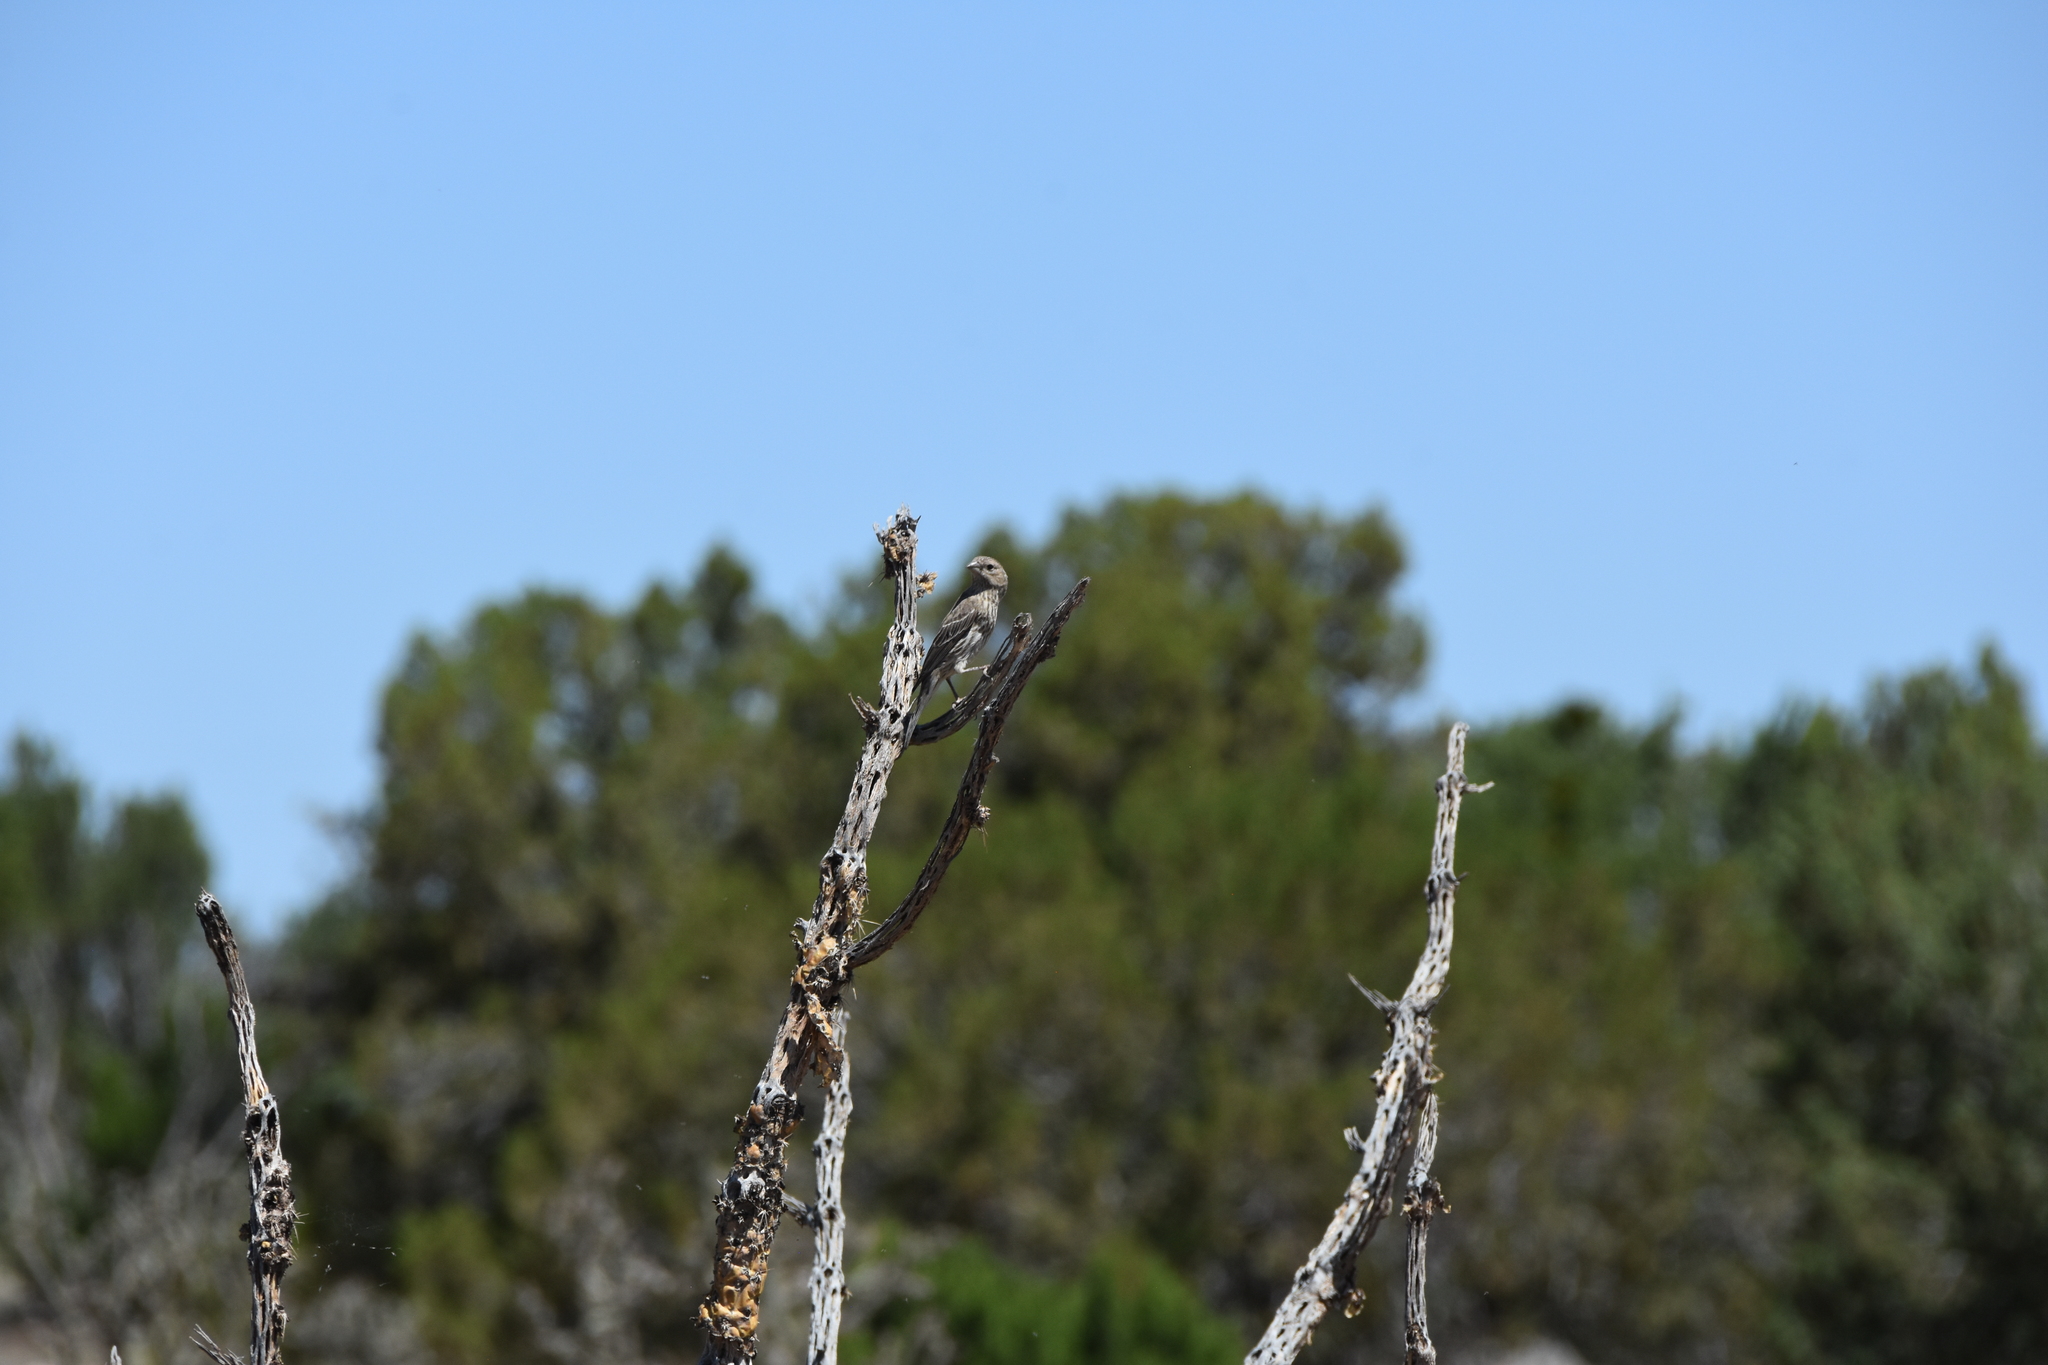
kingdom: Animalia
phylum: Chordata
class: Aves
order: Passeriformes
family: Fringillidae
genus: Haemorhous
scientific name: Haemorhous mexicanus
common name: House finch
